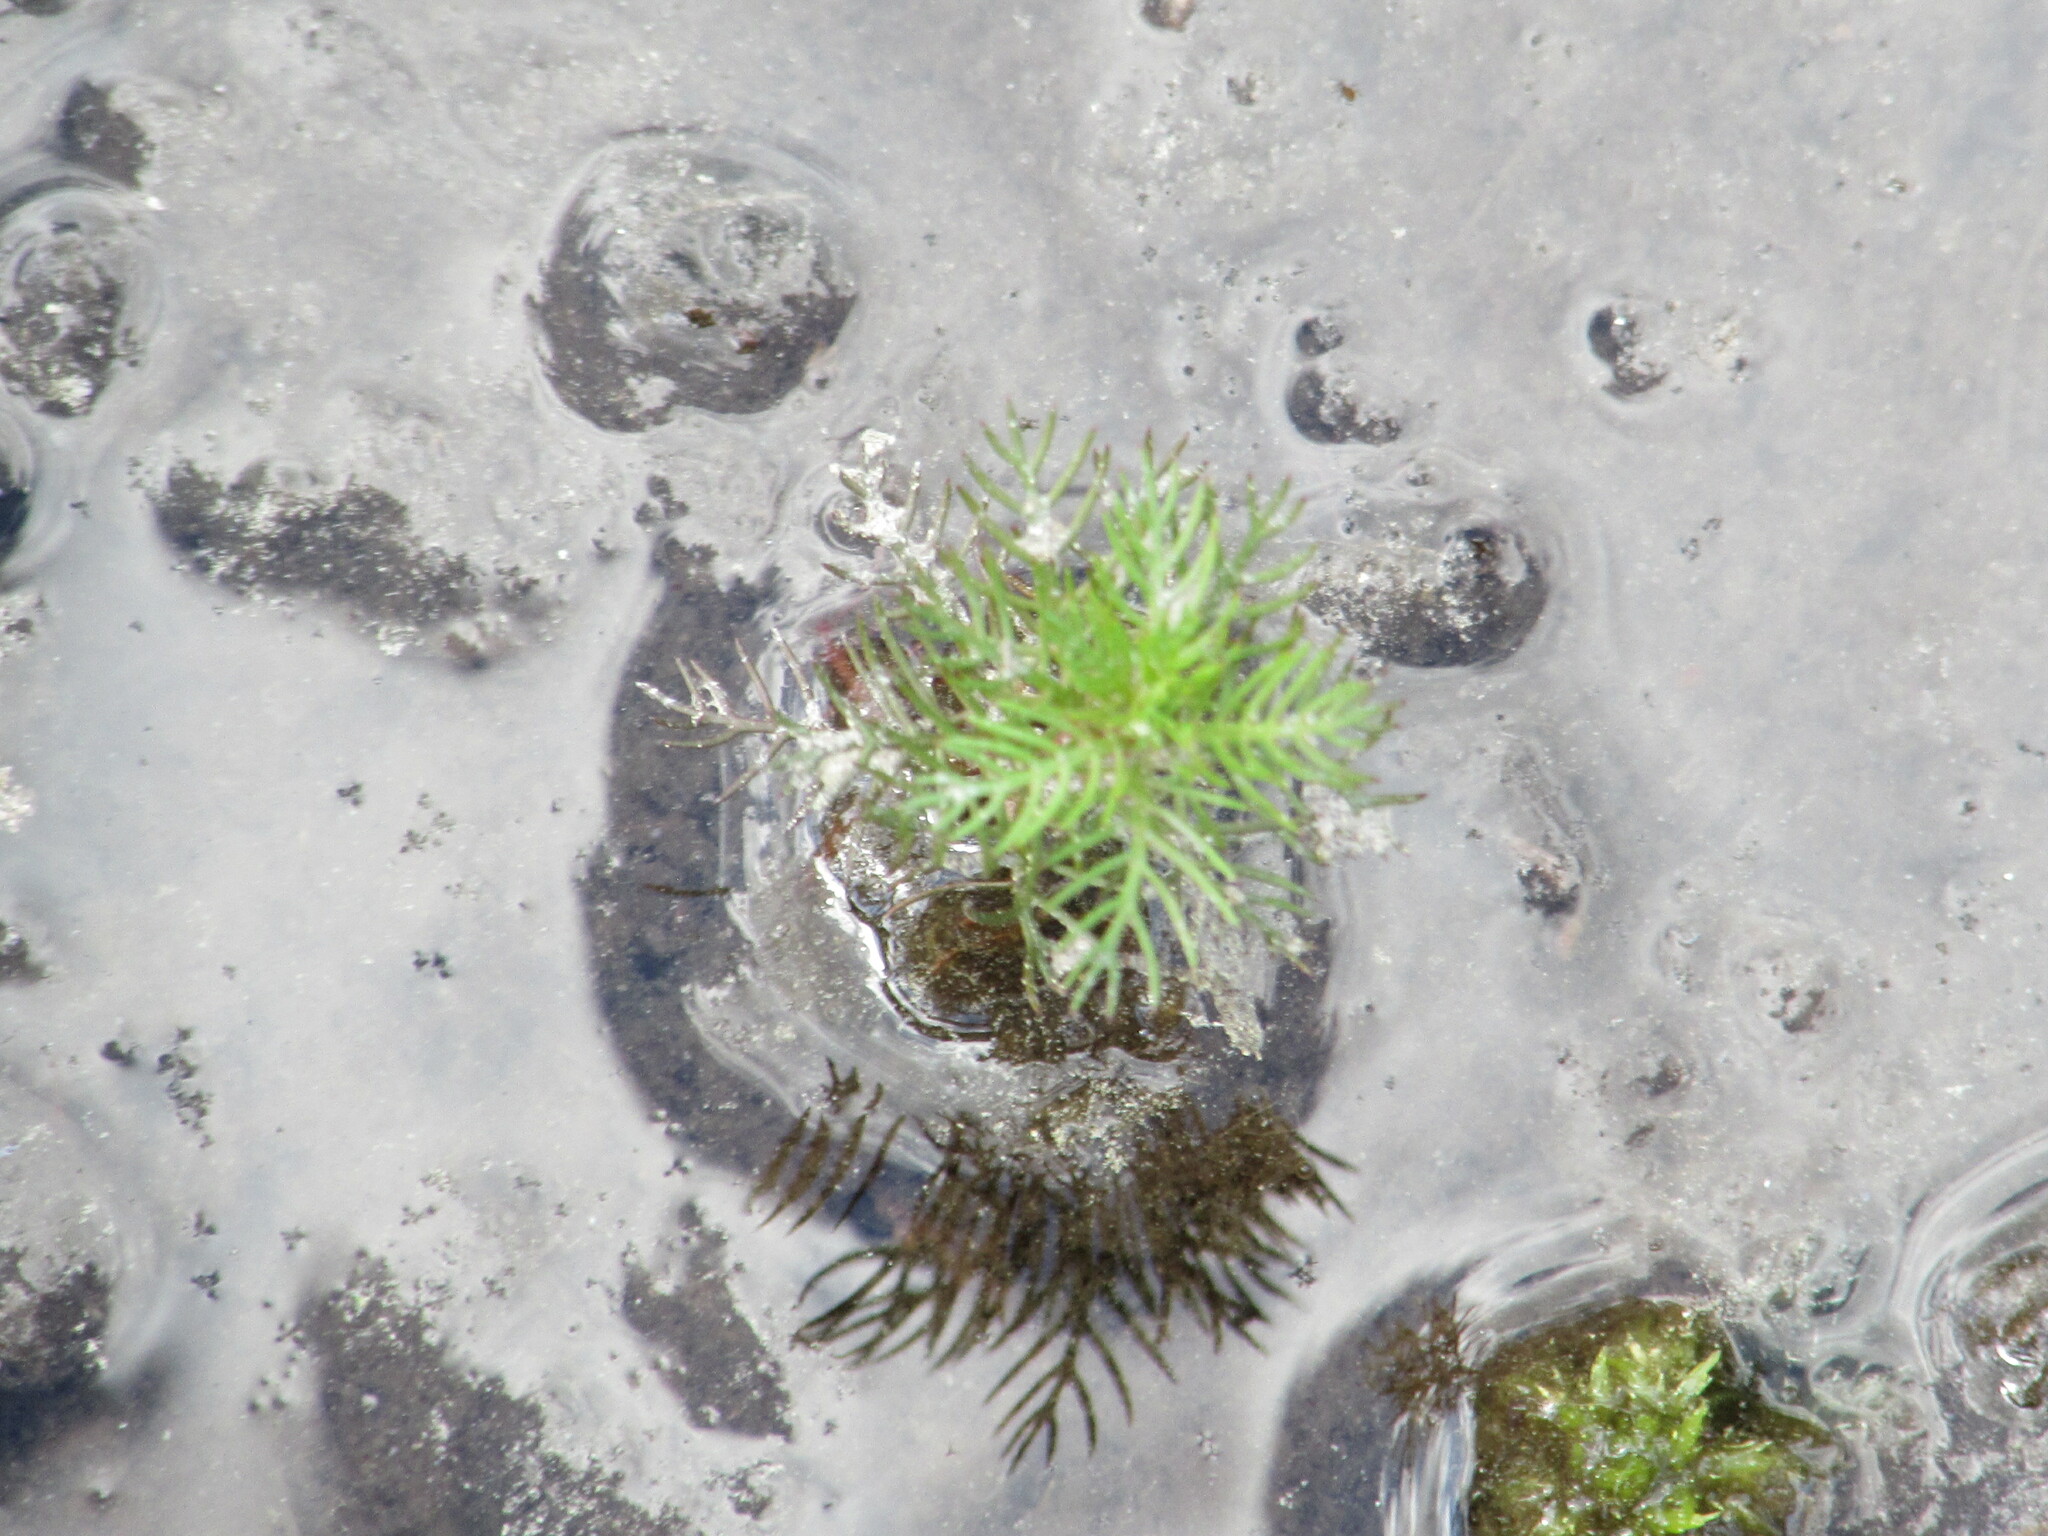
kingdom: Plantae
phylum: Tracheophyta
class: Magnoliopsida
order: Saxifragales
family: Haloragaceae
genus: Proserpinaca
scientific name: Proserpinaca pectinata
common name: Comb-leaved mermaidweed
